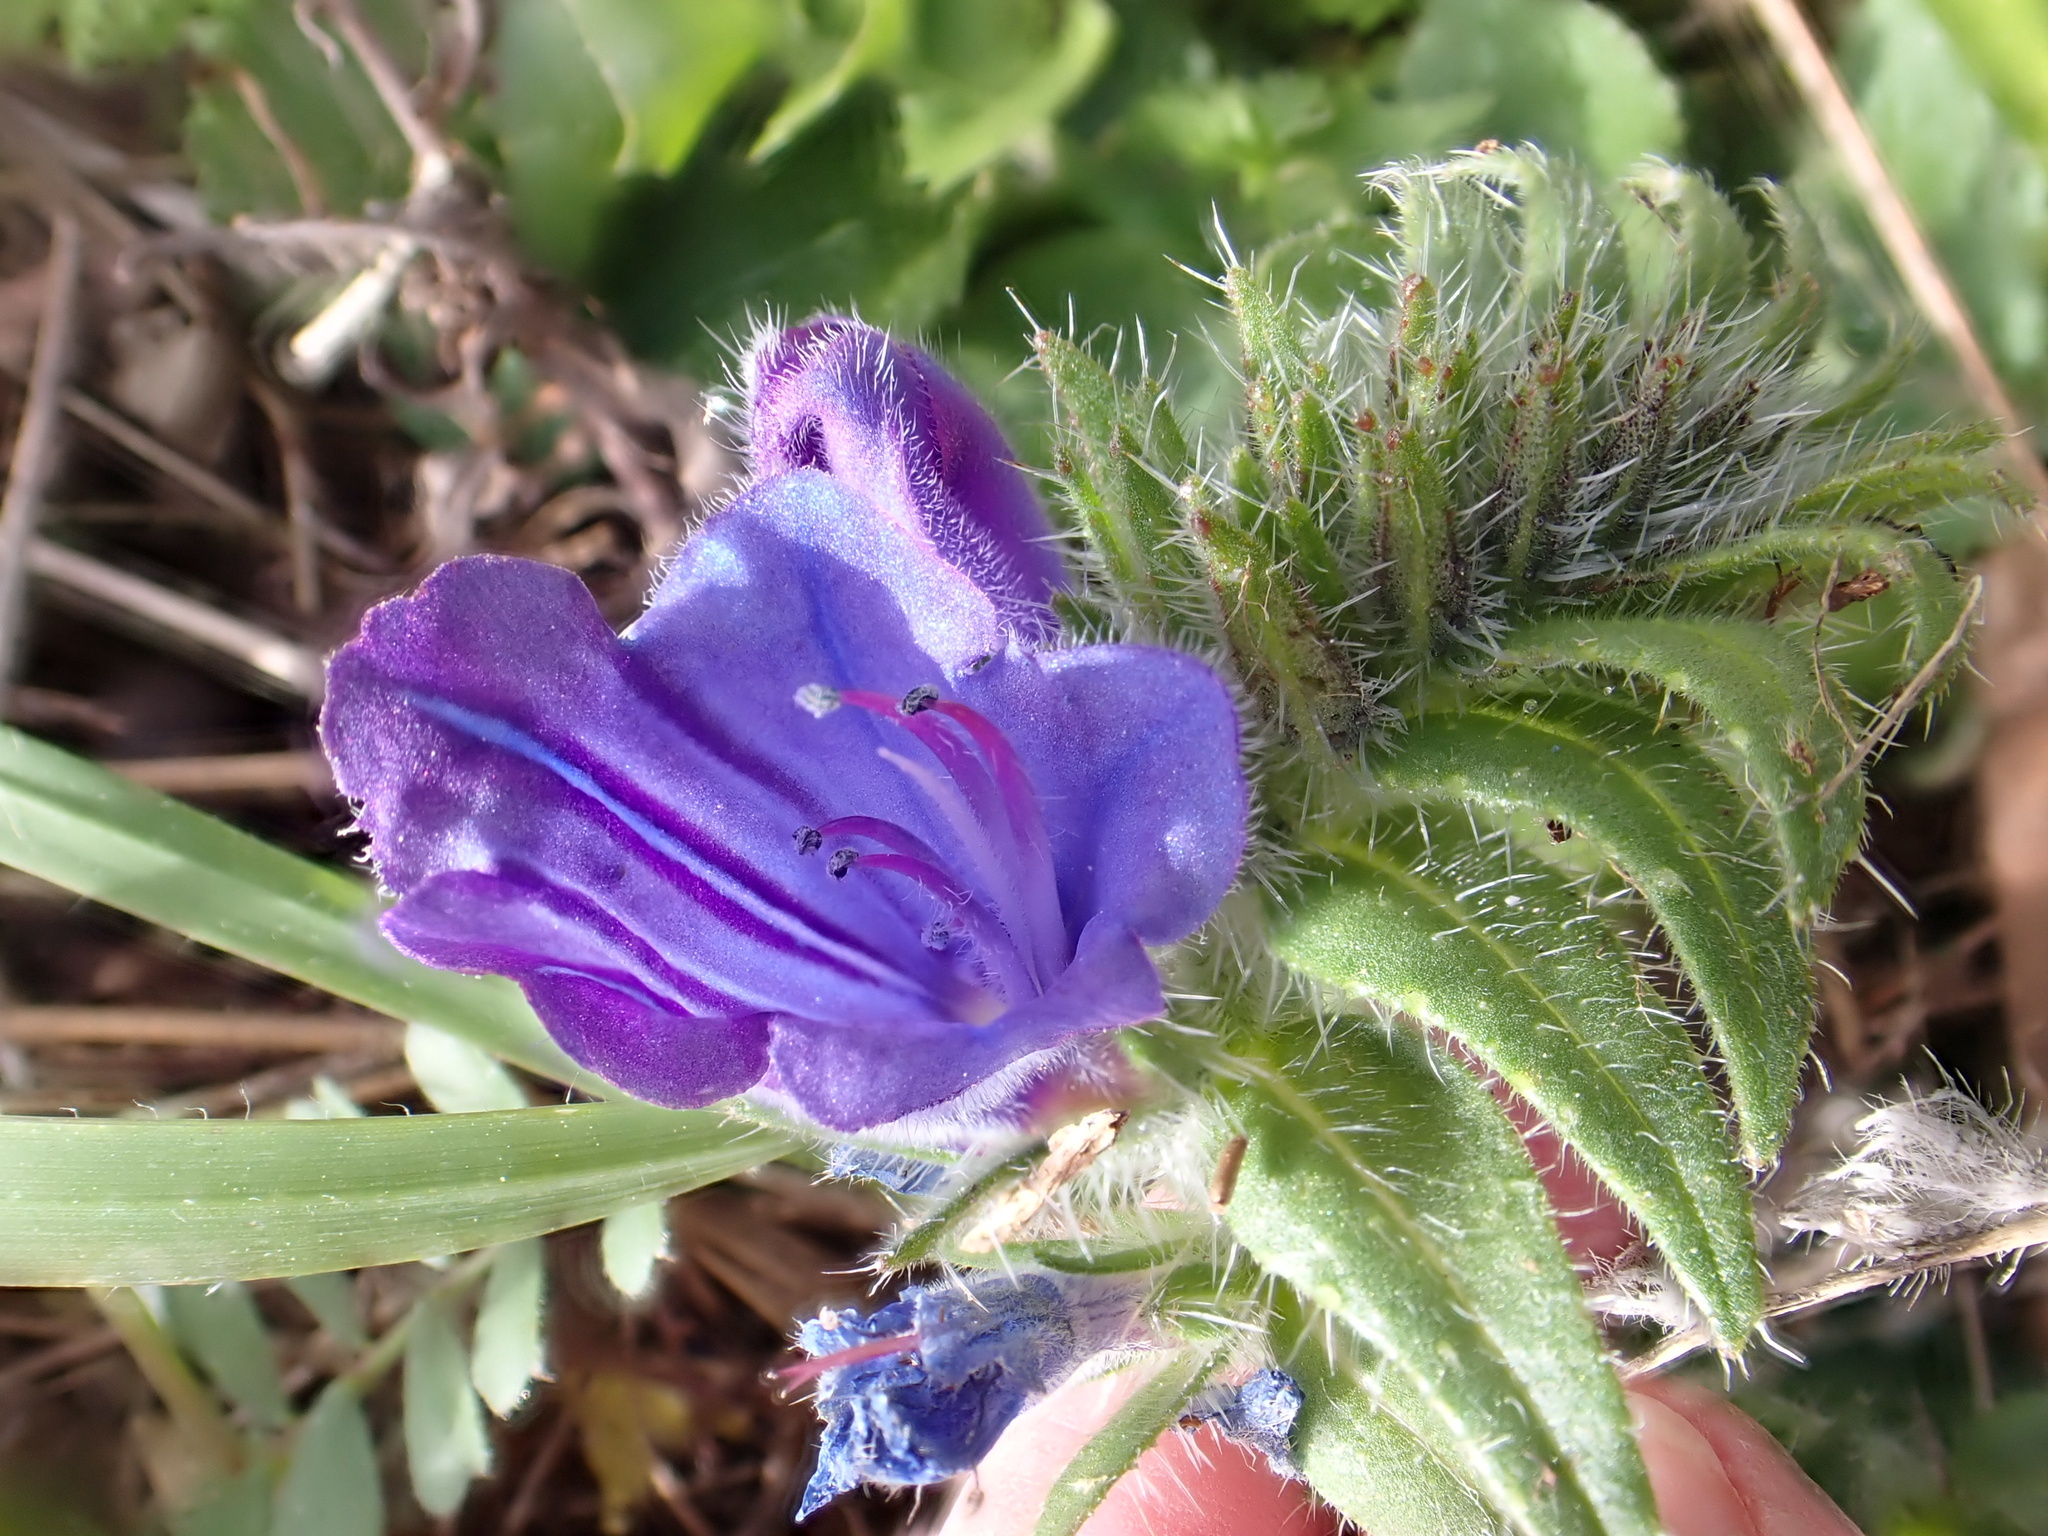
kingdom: Plantae
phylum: Tracheophyta
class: Magnoliopsida
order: Boraginales
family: Boraginaceae
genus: Echium
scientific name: Echium creticum
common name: Cretan viper's bugloss
